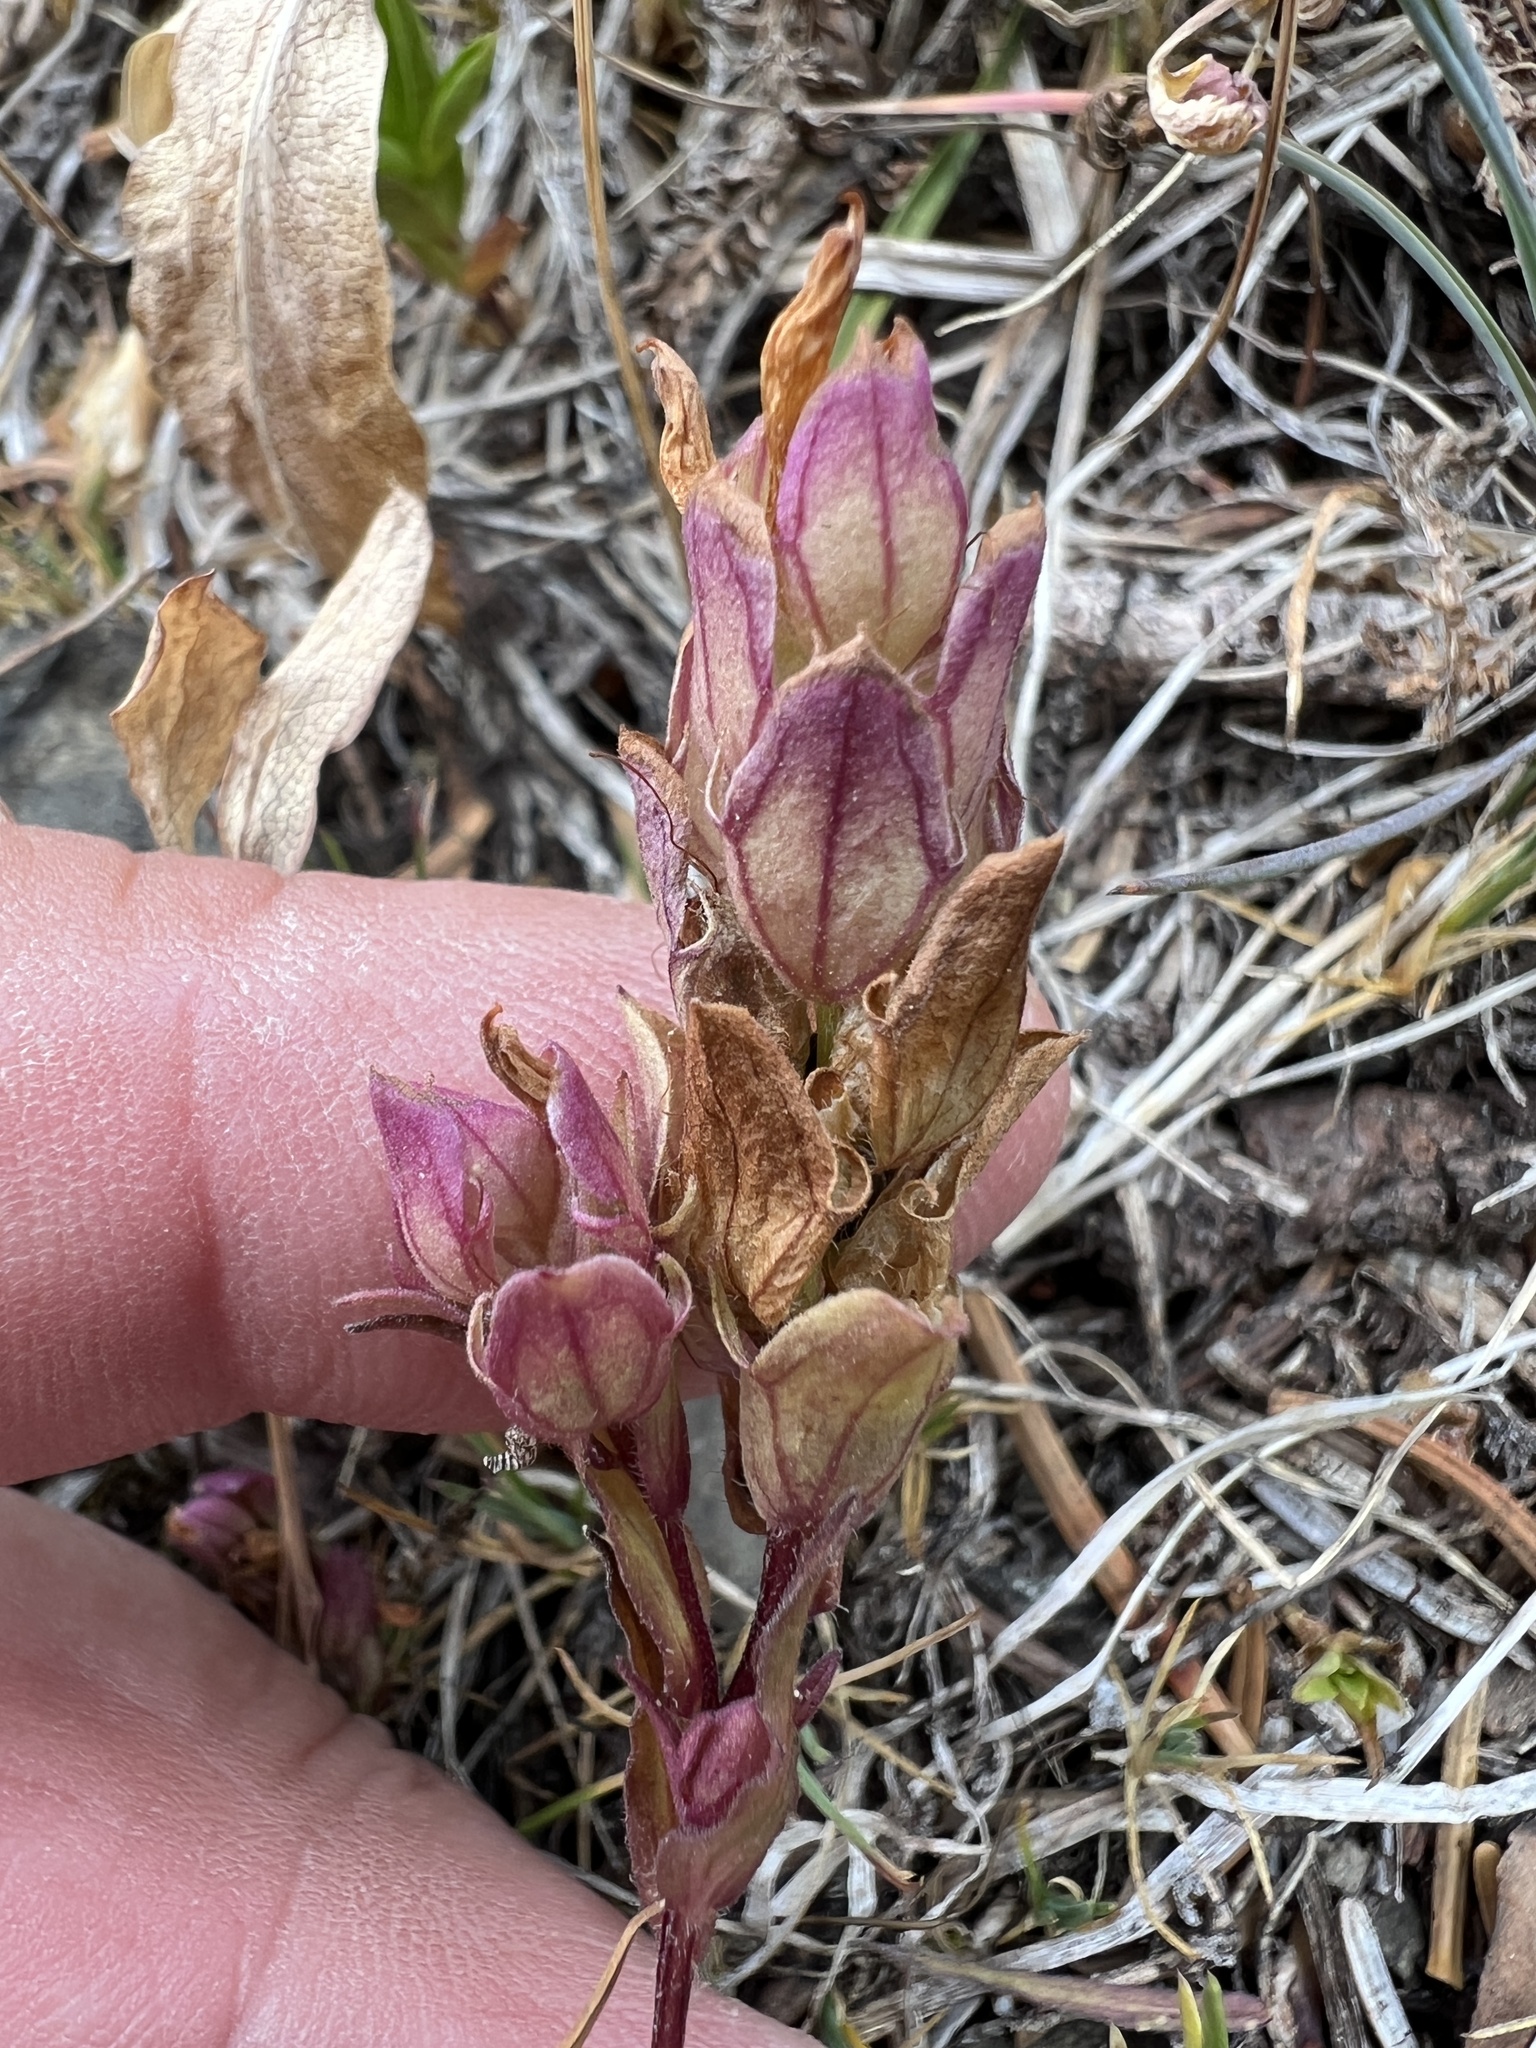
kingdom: Plantae
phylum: Tracheophyta
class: Magnoliopsida
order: Lamiales
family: Orobanchaceae
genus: Orthocarpus
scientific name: Orthocarpus imbricatus
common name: Mountain owl's-clover
